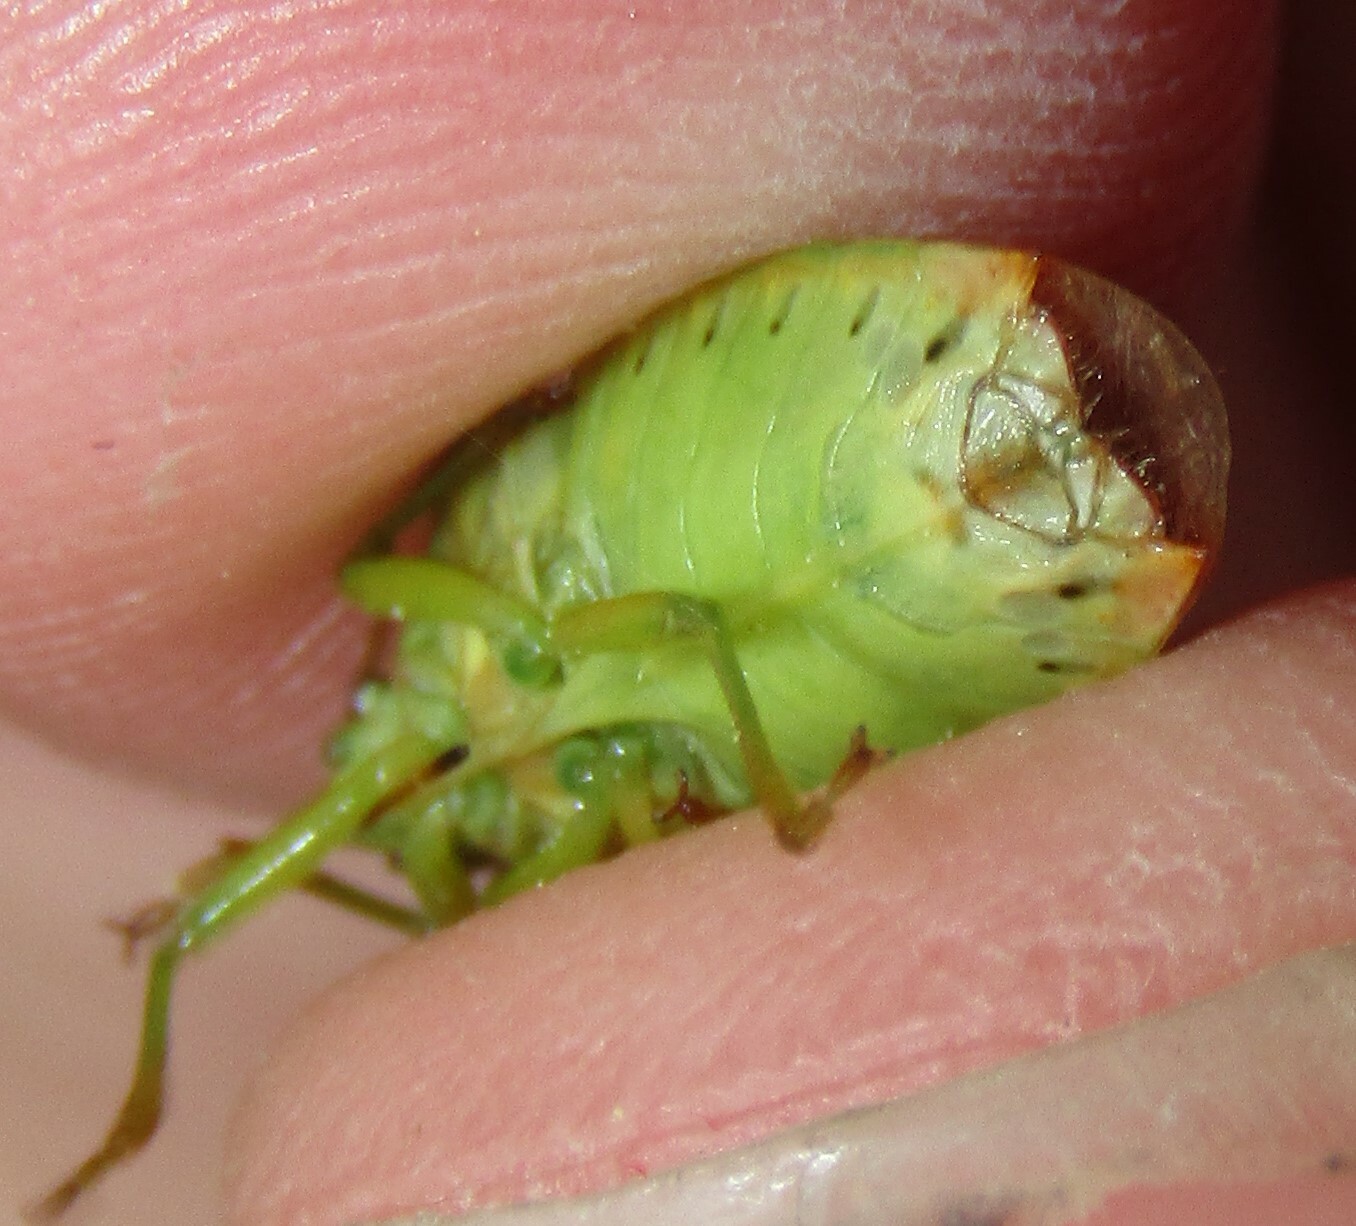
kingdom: Animalia
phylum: Arthropoda
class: Insecta
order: Hemiptera
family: Acanthosomatidae
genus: Elasmostethus
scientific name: Elasmostethus interstinctus
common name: Birch shieldbug
